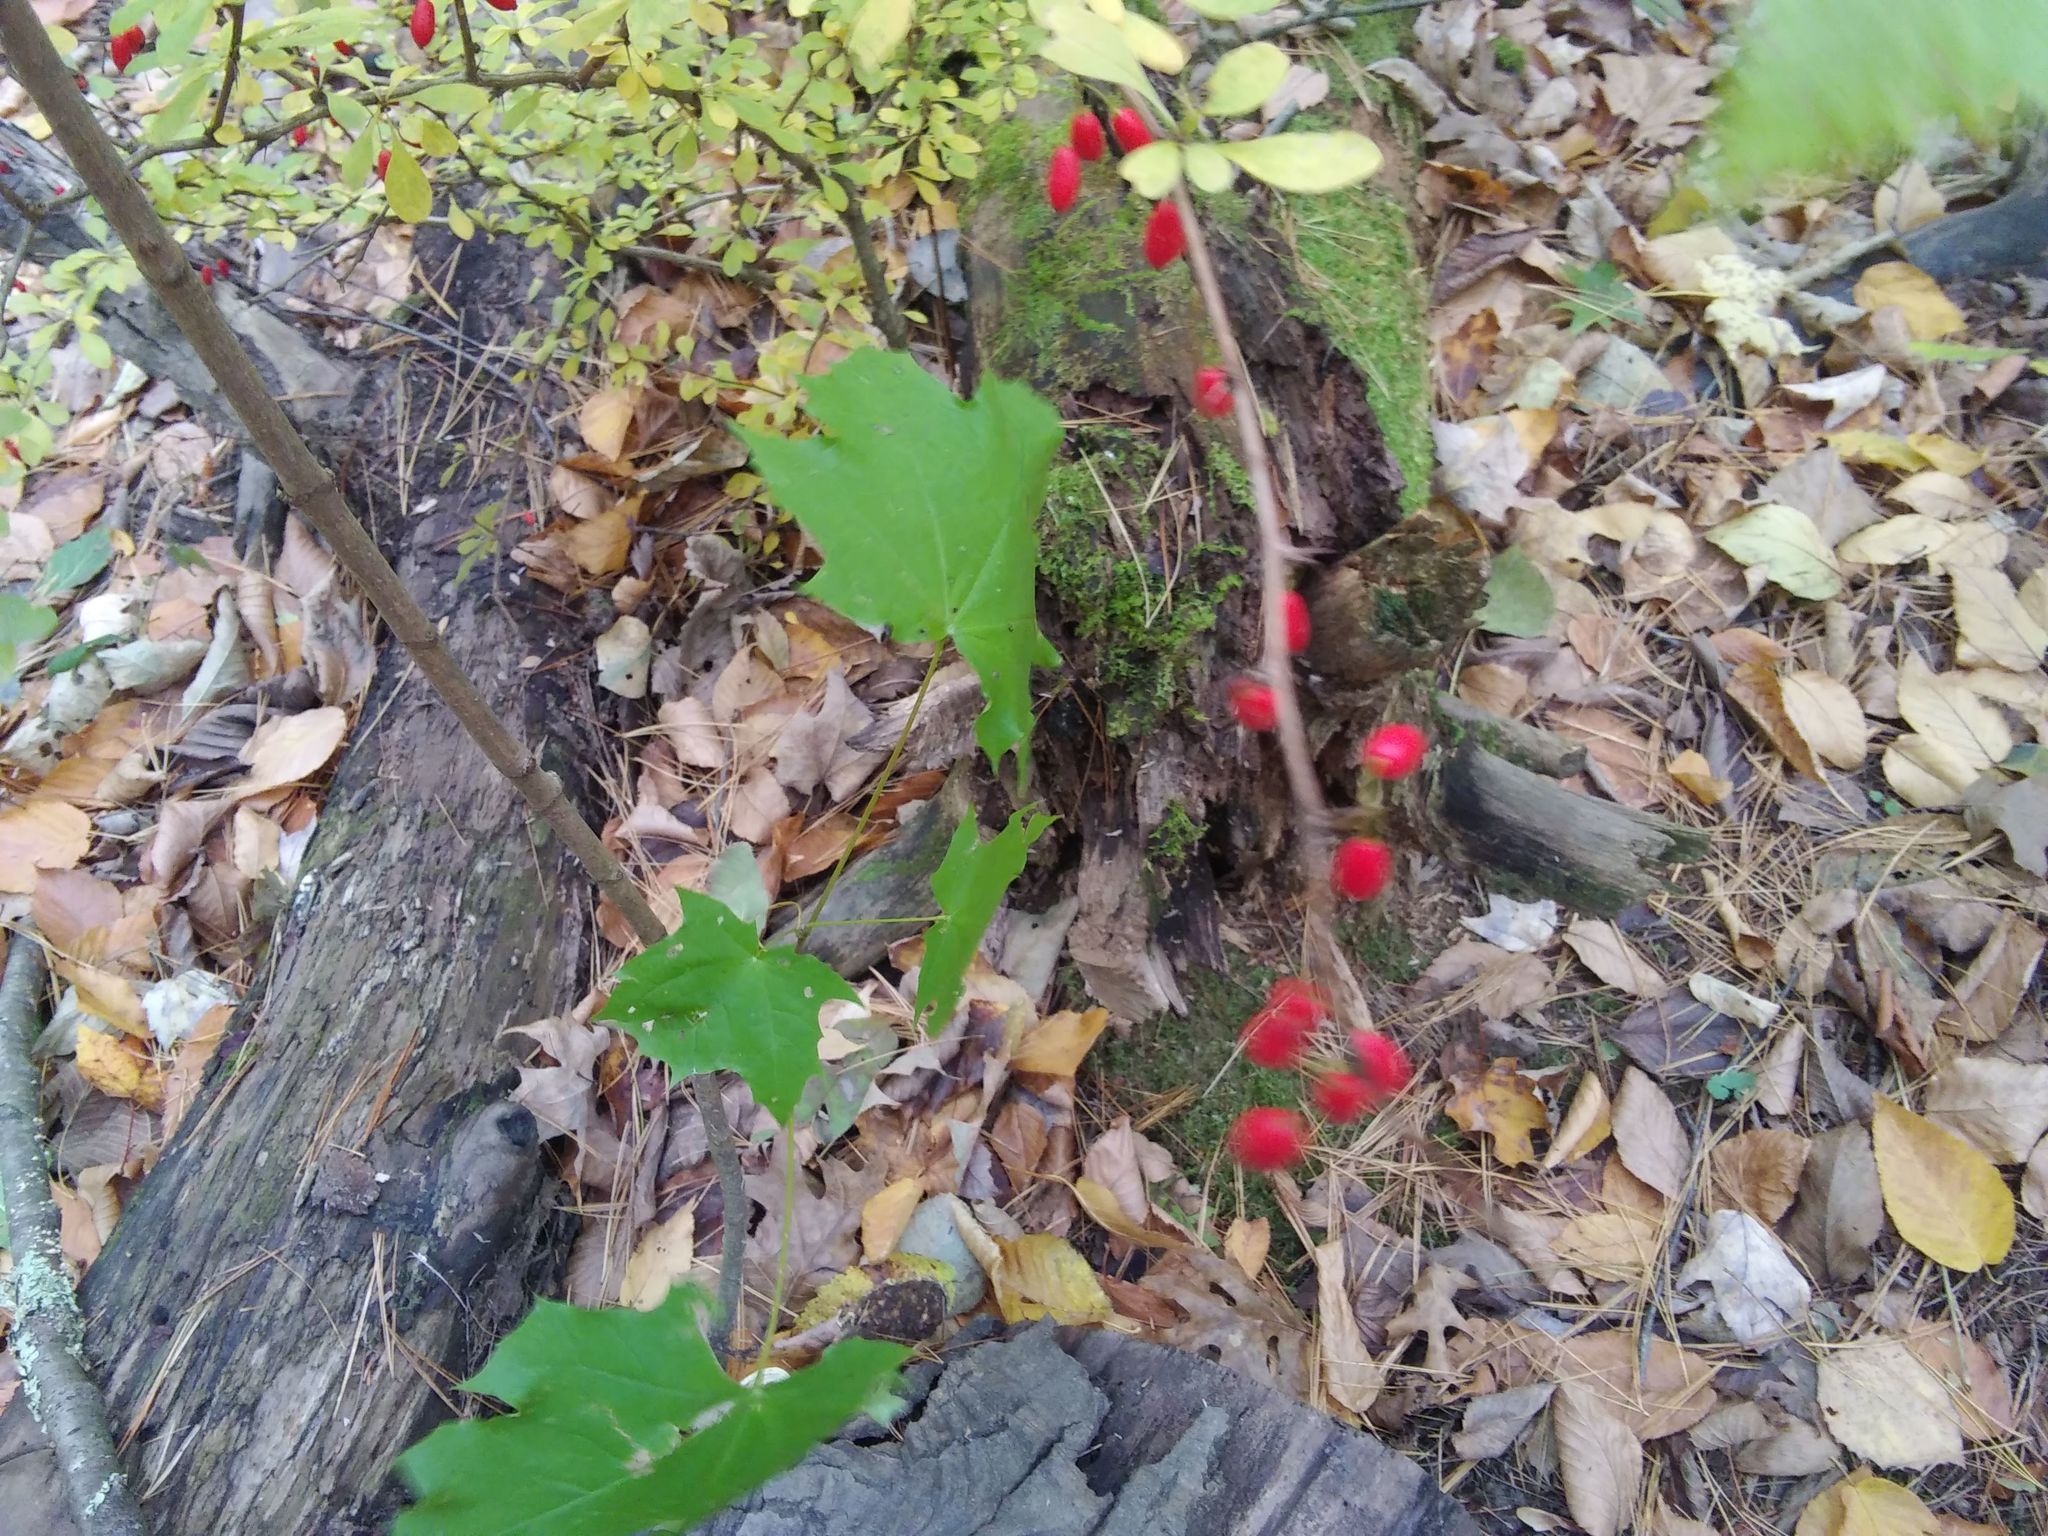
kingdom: Plantae
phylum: Tracheophyta
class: Magnoliopsida
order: Ranunculales
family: Berberidaceae
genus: Berberis
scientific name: Berberis thunbergii
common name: Japanese barberry
